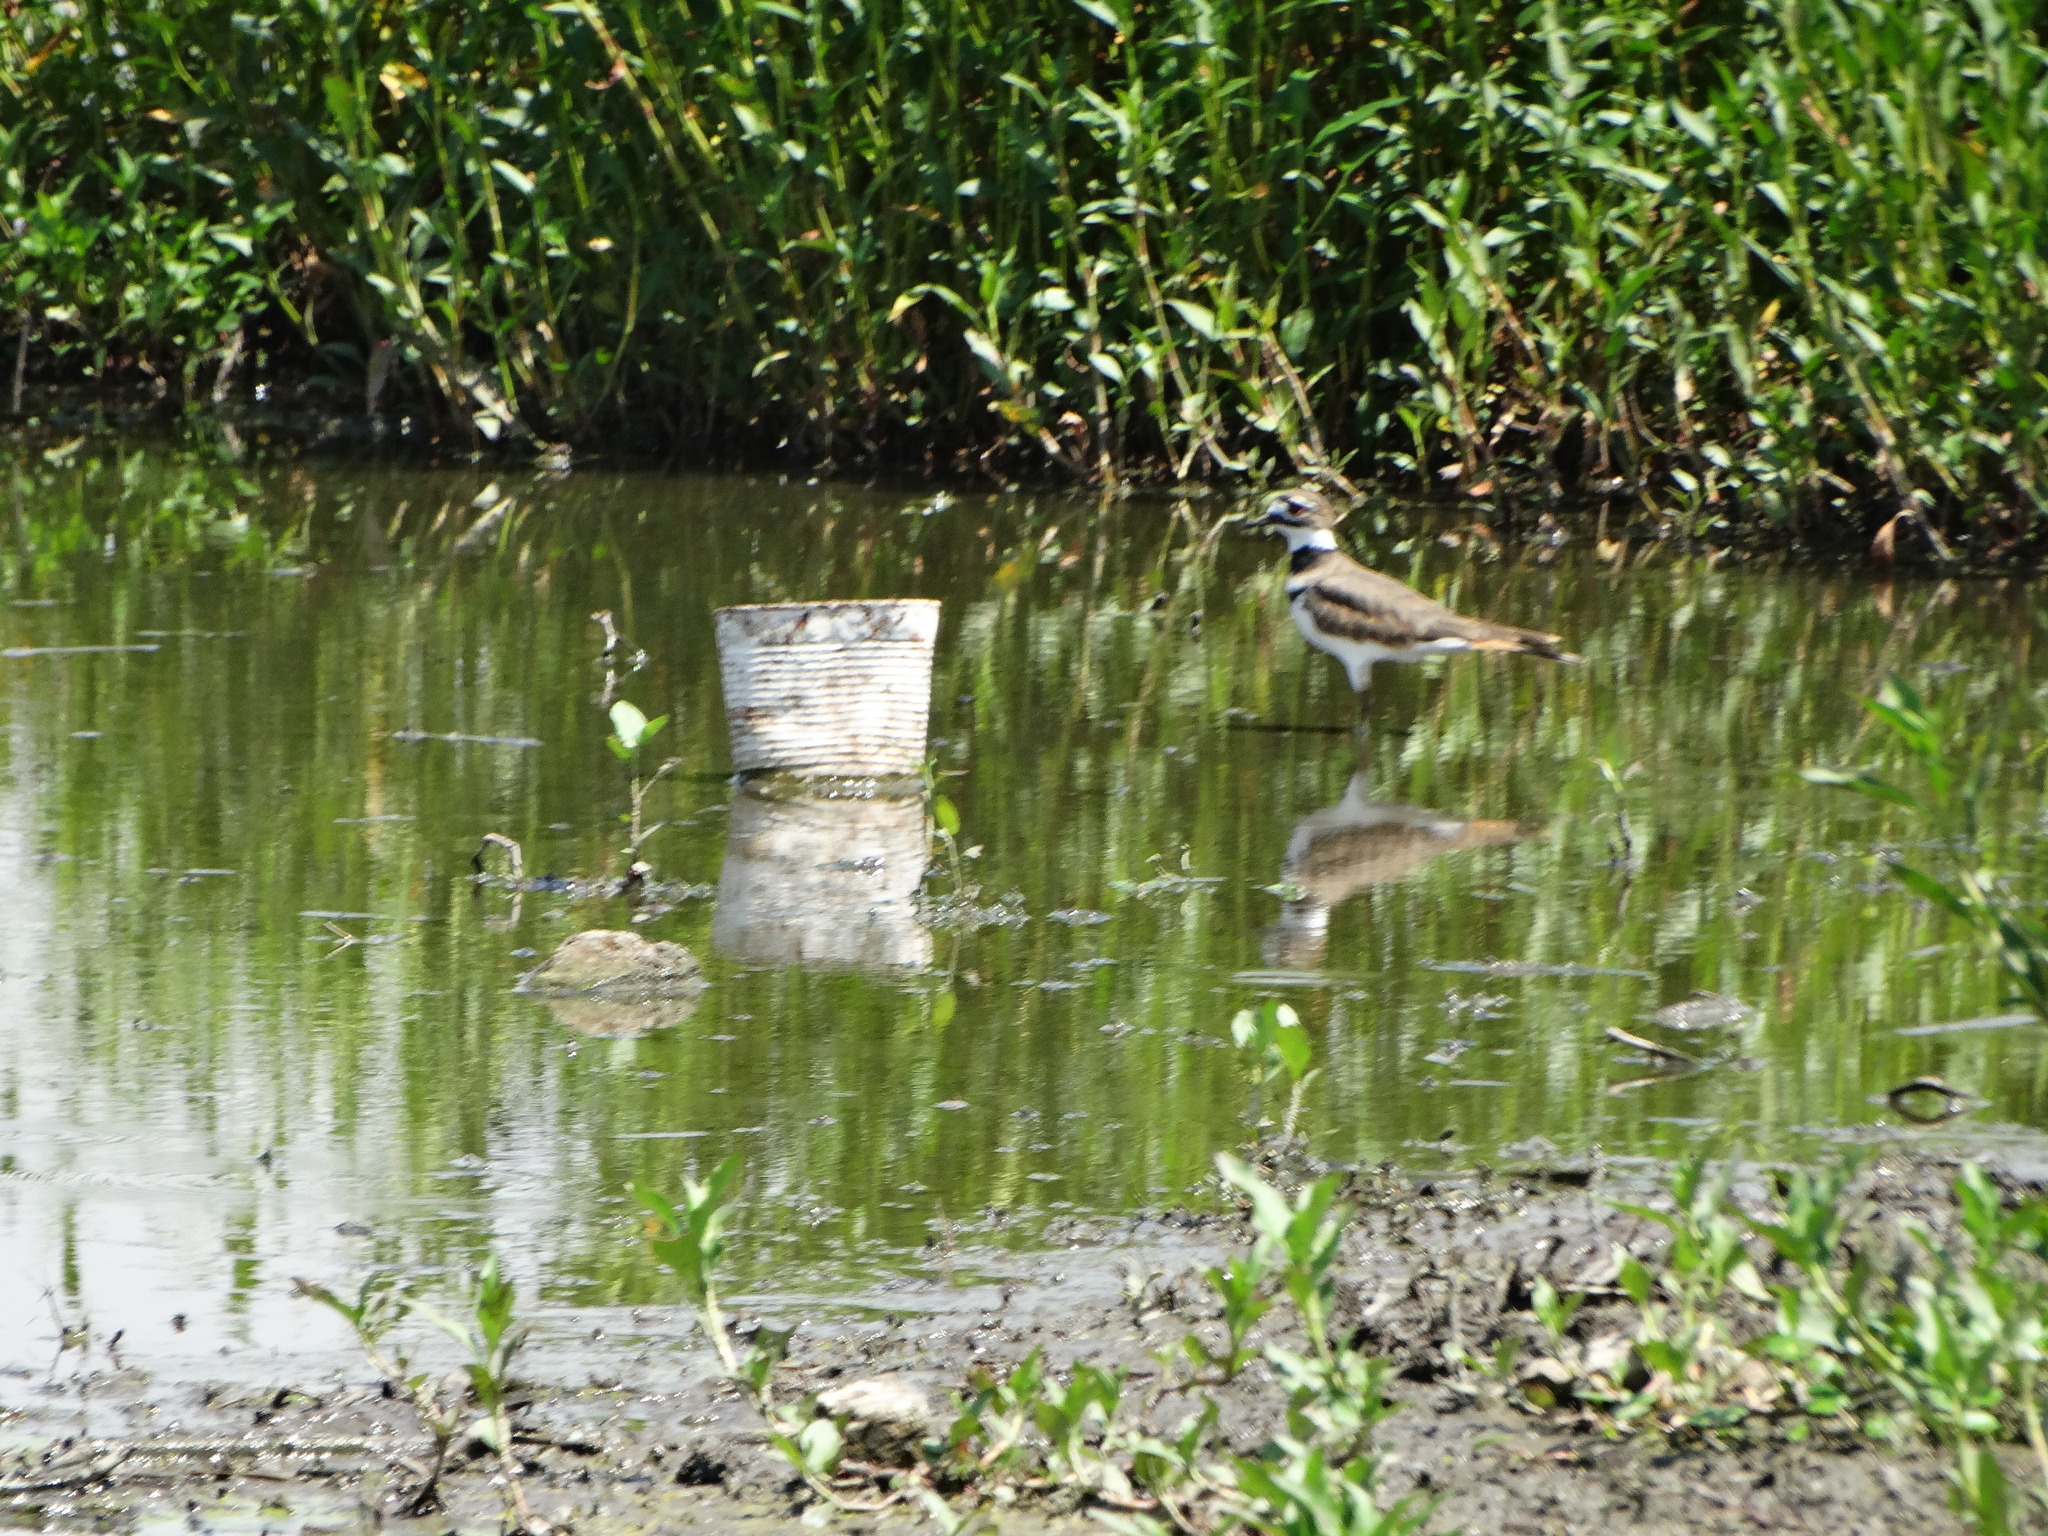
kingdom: Animalia
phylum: Chordata
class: Aves
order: Charadriiformes
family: Charadriidae
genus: Charadrius
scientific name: Charadrius vociferus
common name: Killdeer
